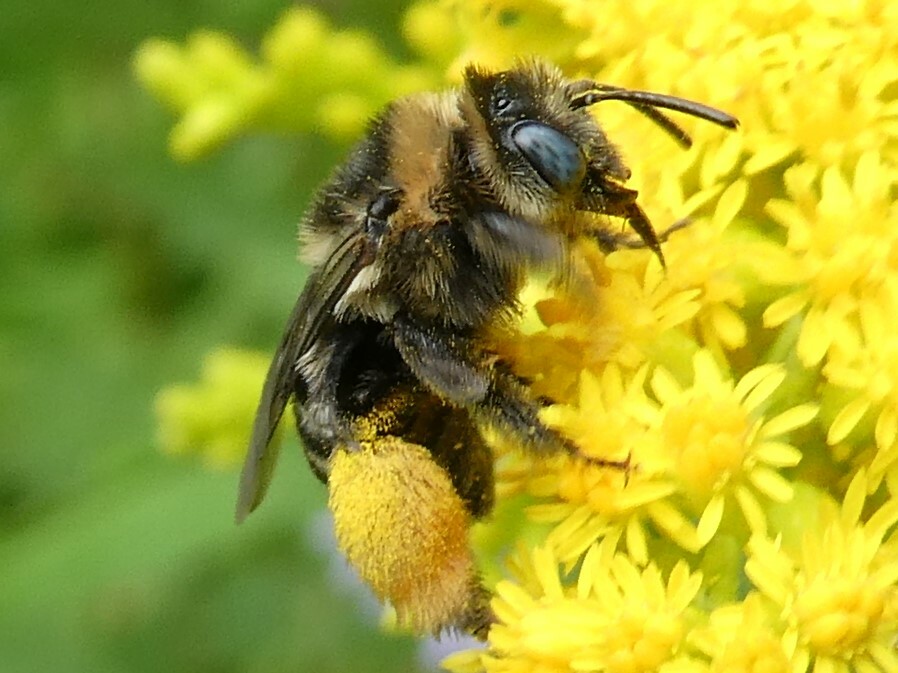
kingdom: Animalia
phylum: Arthropoda
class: Insecta
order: Hymenoptera
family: Apidae
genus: Melissodes
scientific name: Melissodes druriellus
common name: Drury's long-horned bee
